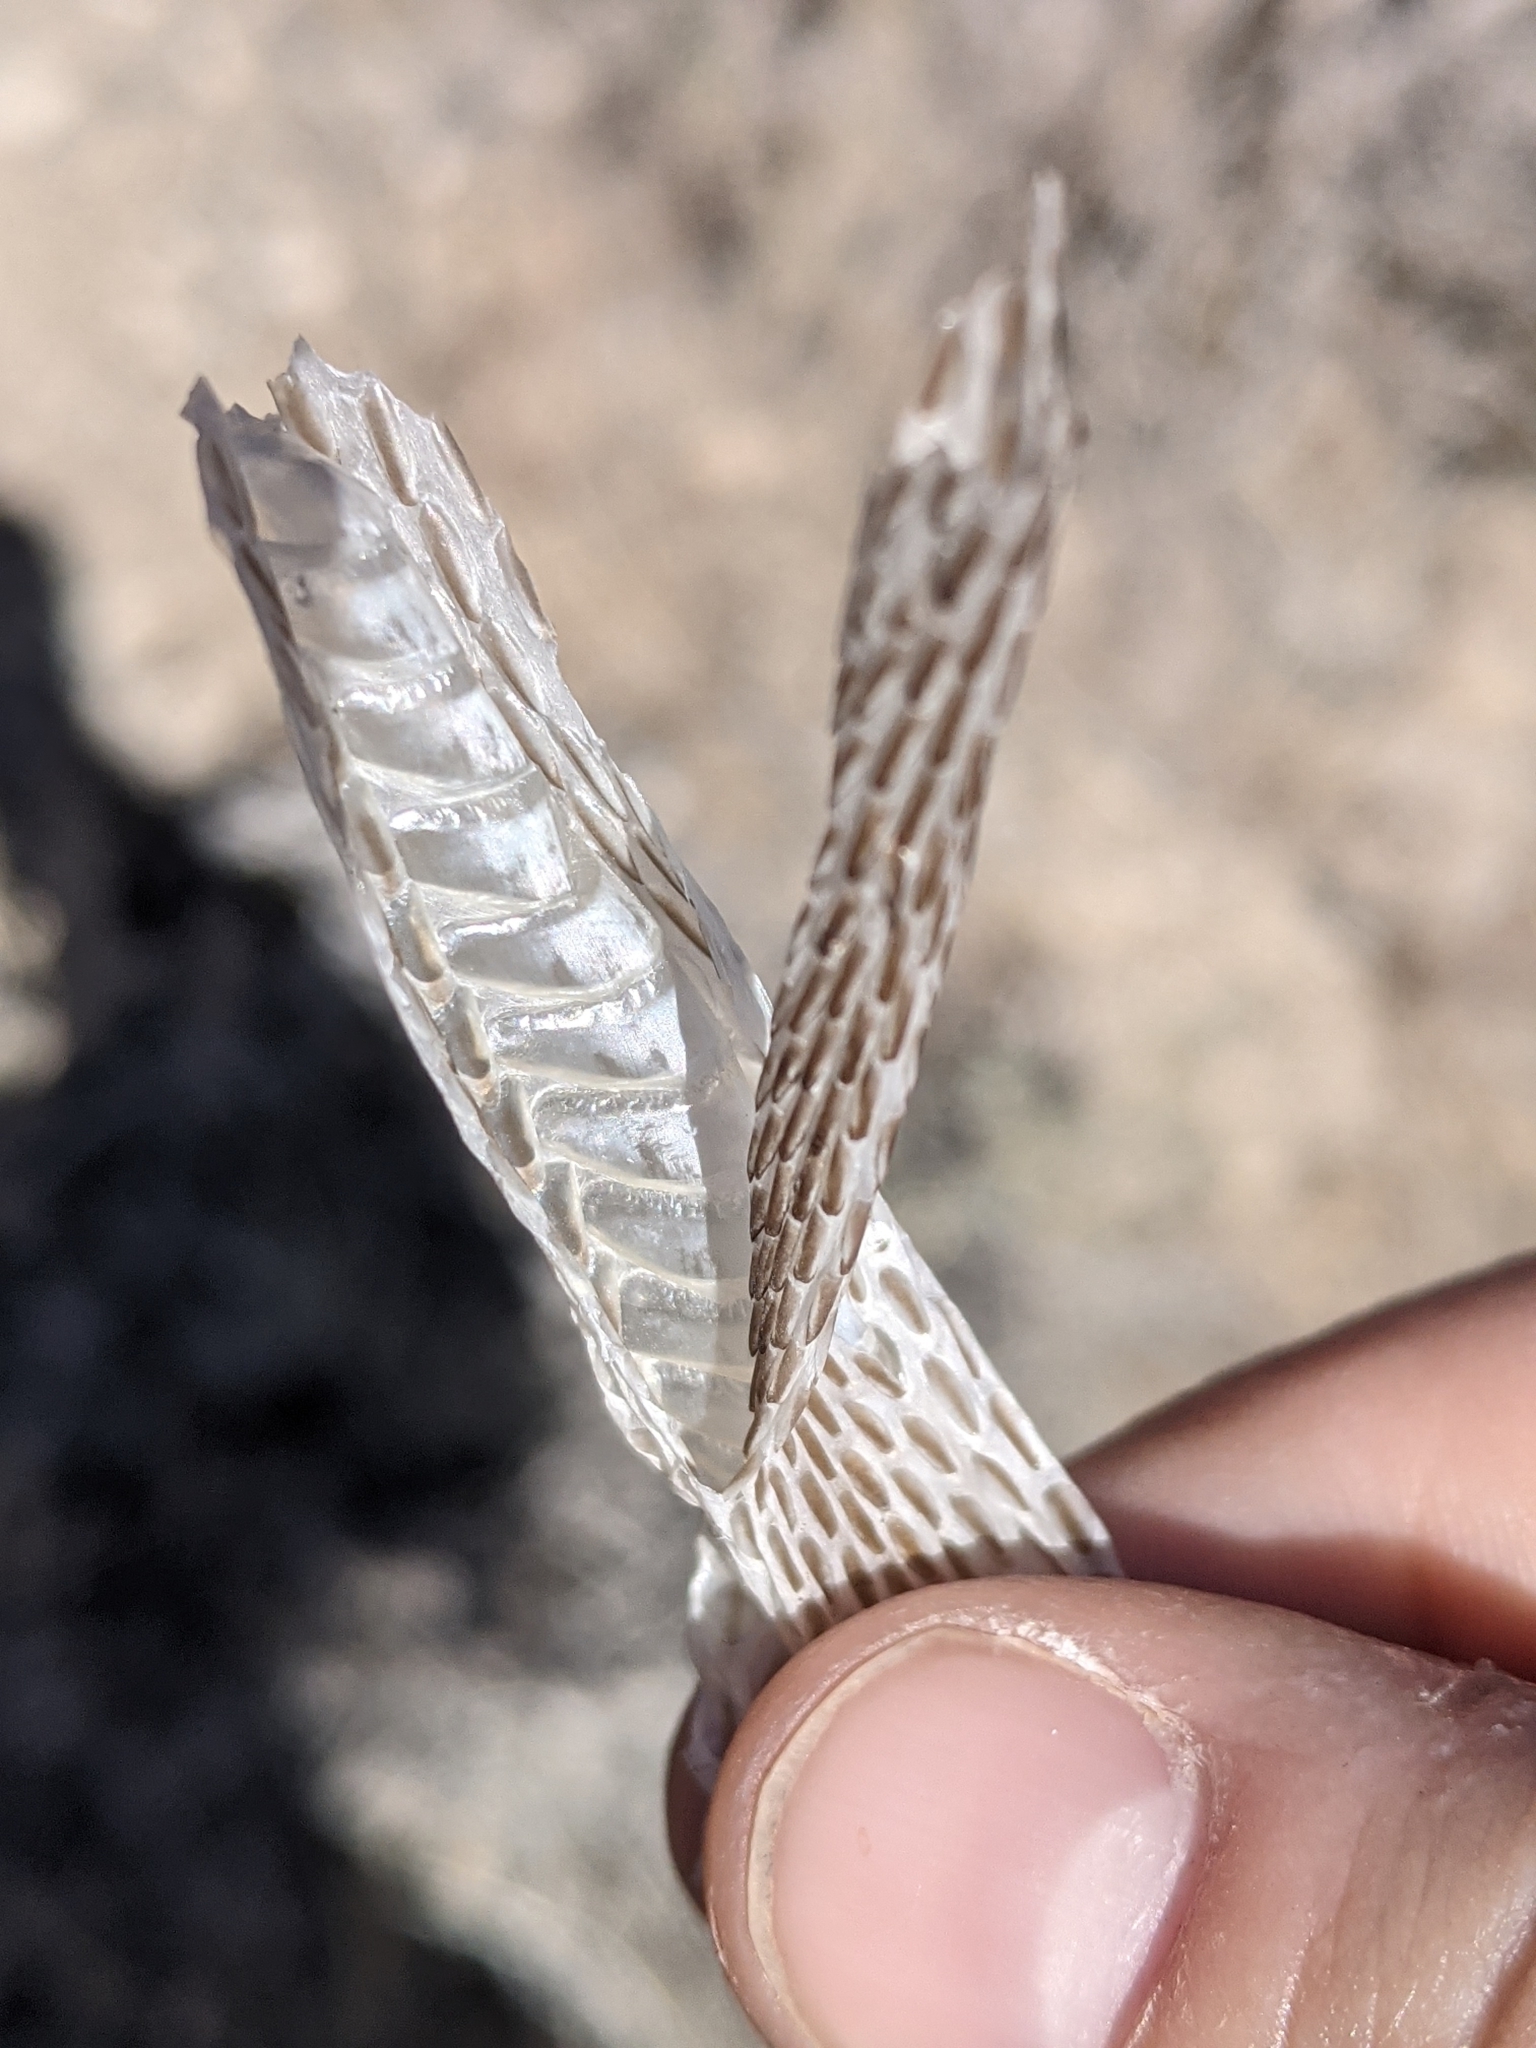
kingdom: Animalia
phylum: Chordata
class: Squamata
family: Colubridae
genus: Masticophis
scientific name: Masticophis taeniatus
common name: Striped whipsnake
